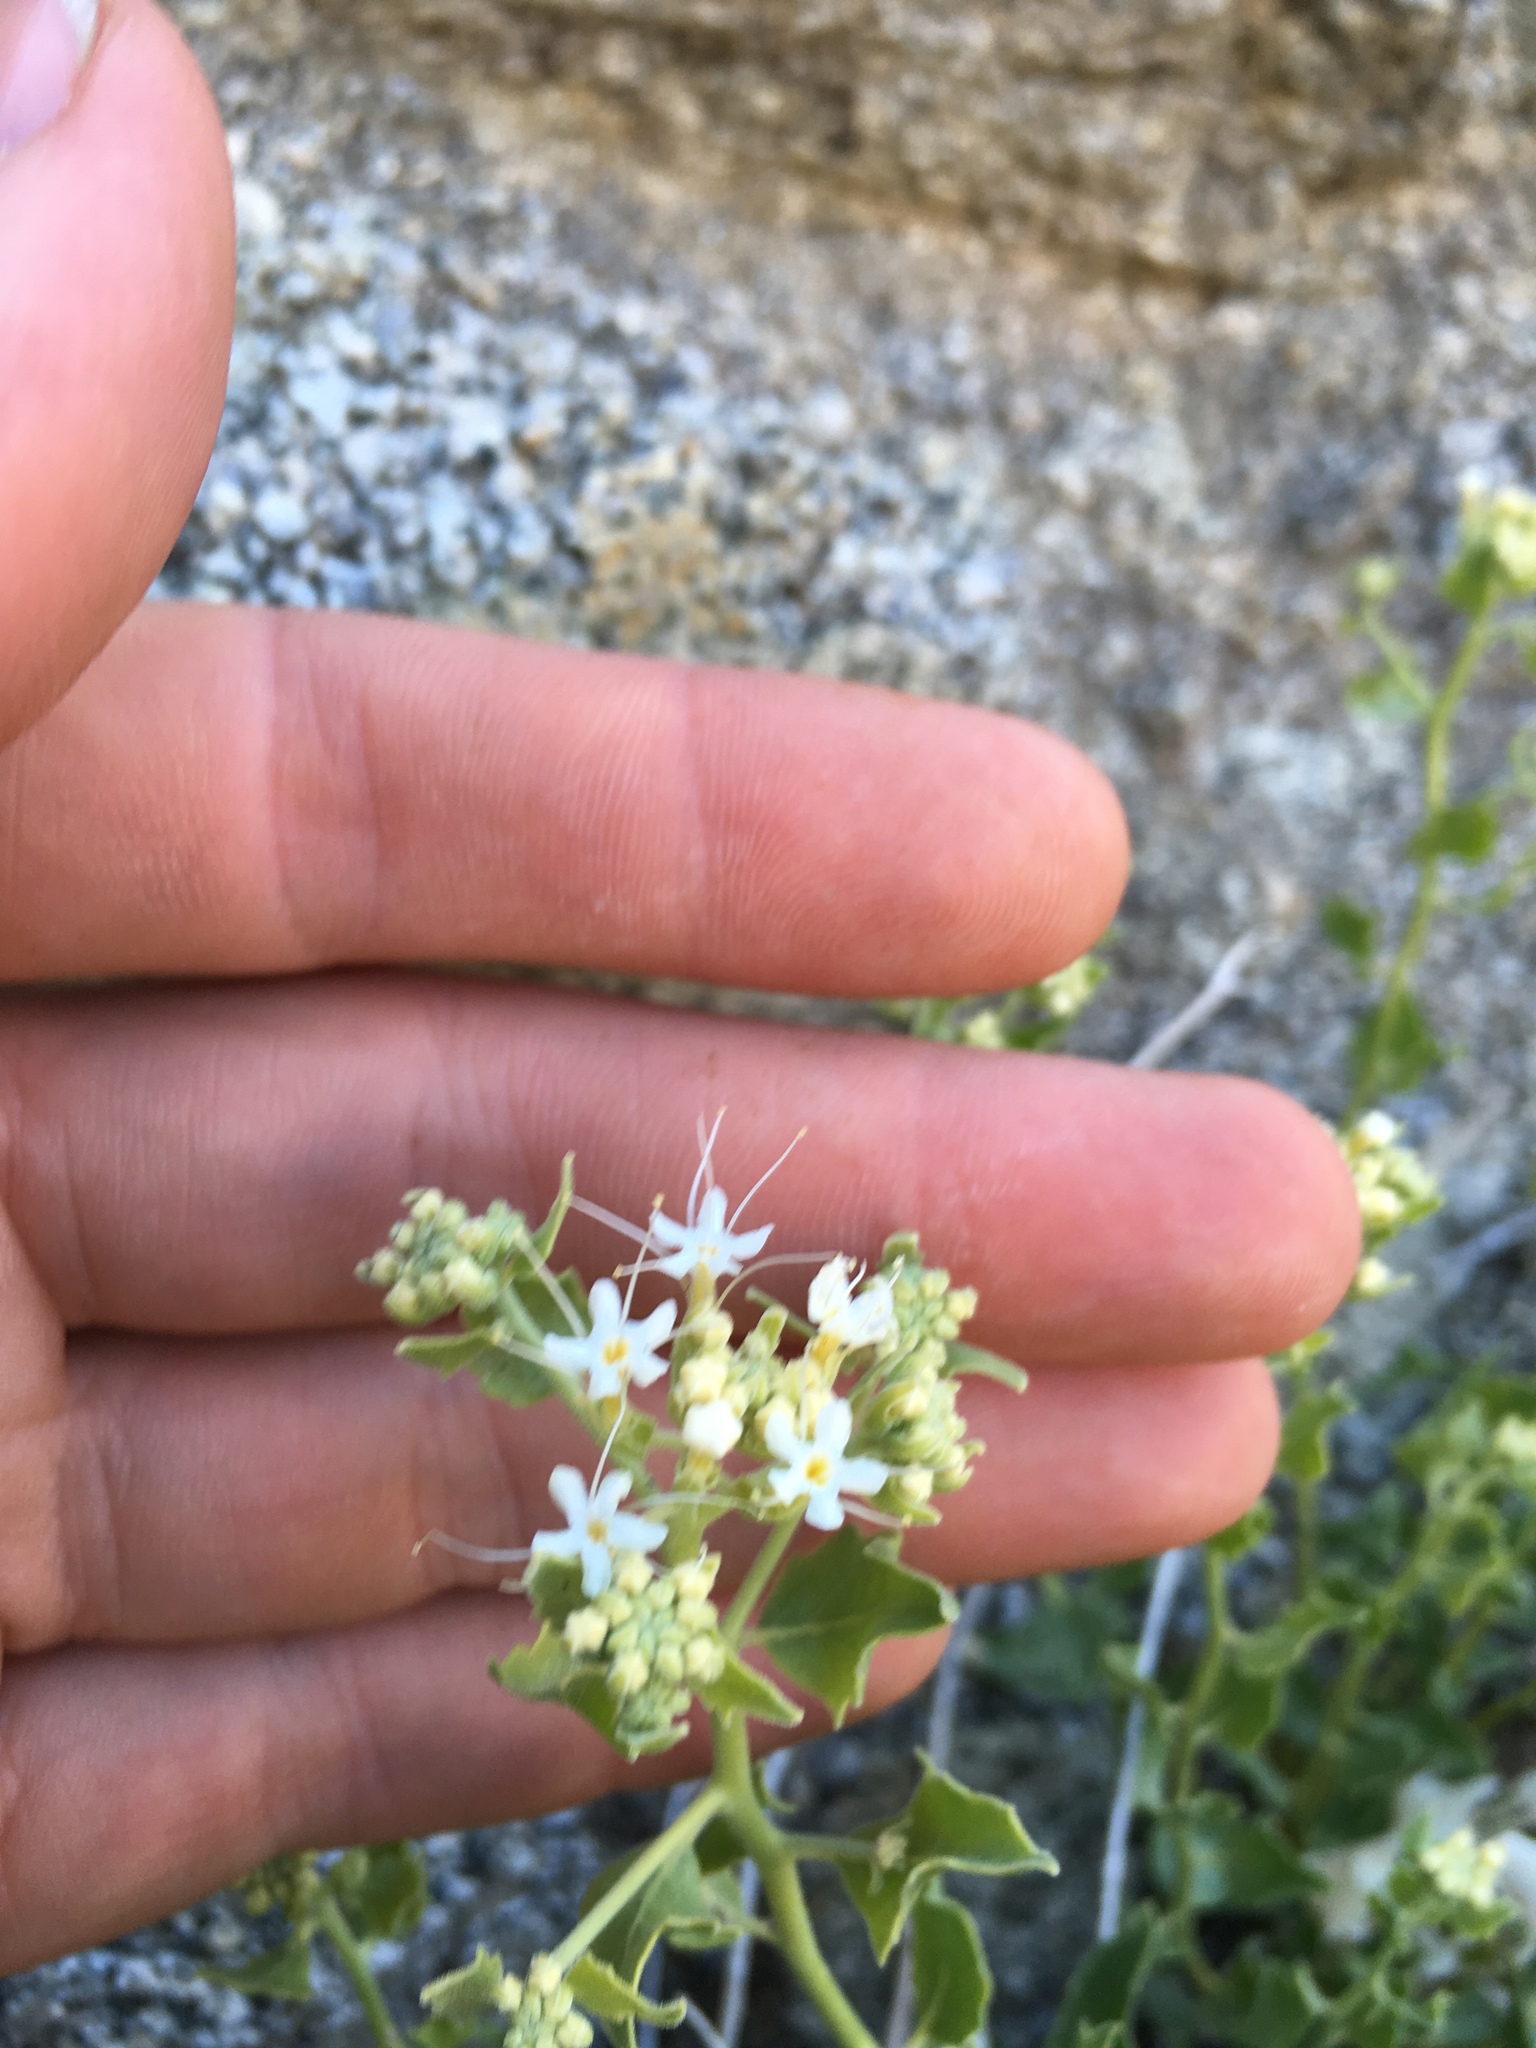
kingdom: Plantae
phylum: Tracheophyta
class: Magnoliopsida
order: Cornales
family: Loasaceae
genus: Petalonyx
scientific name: Petalonyx nitidus
